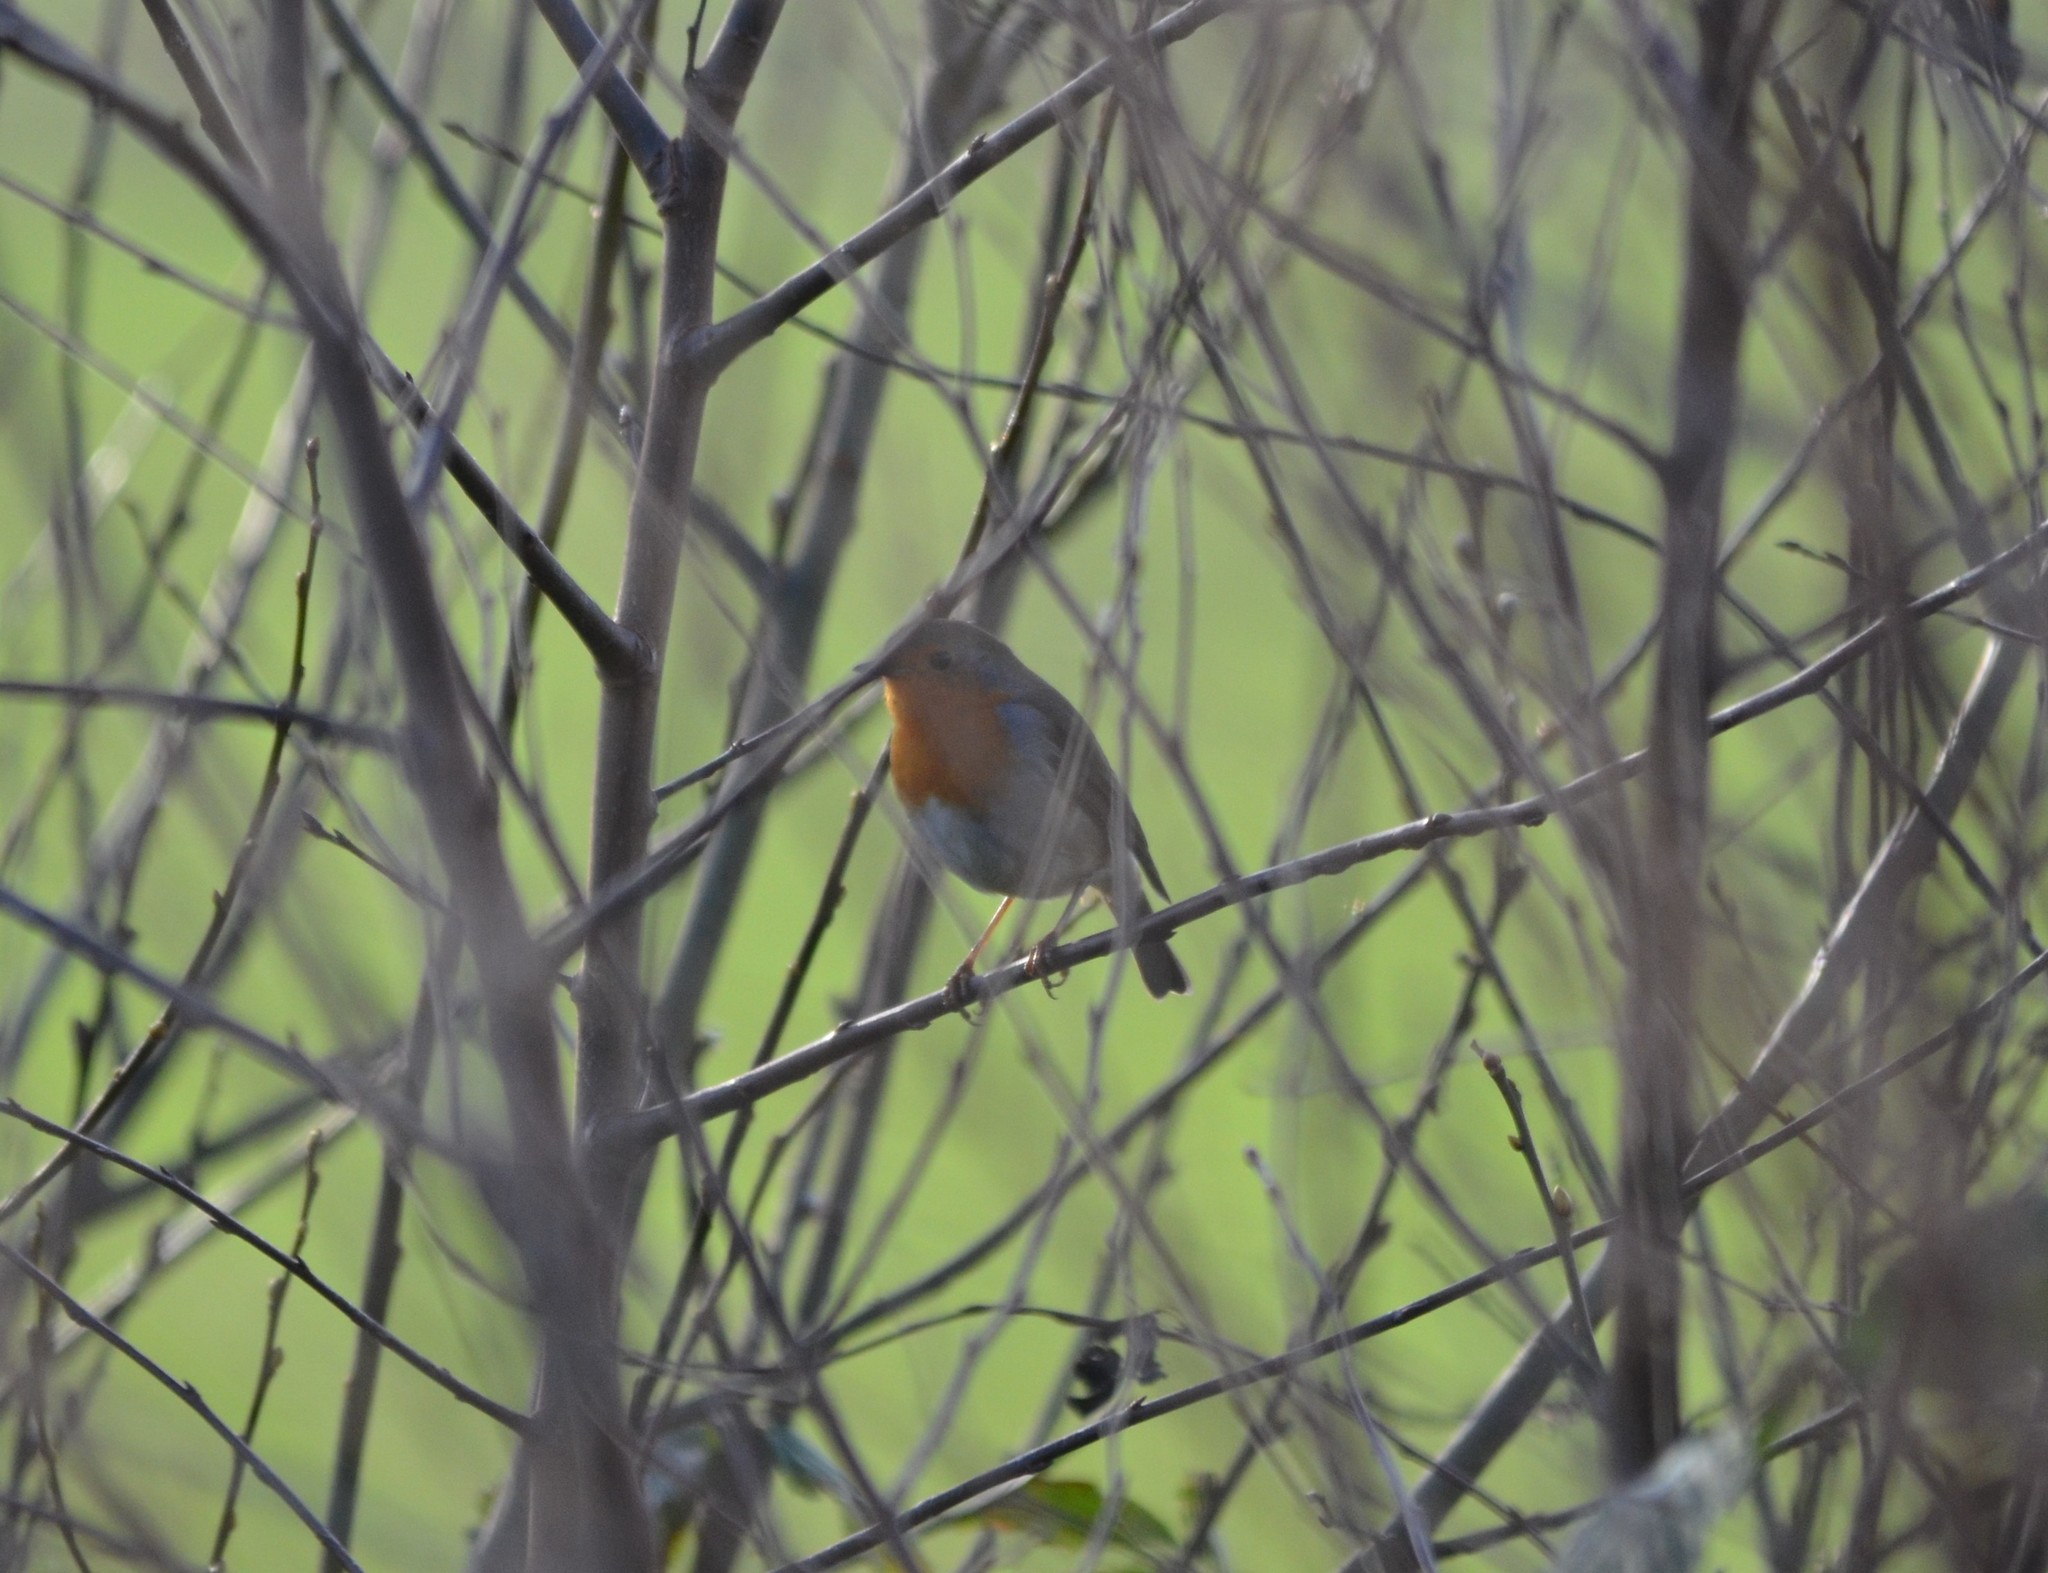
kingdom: Animalia
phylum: Chordata
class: Aves
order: Passeriformes
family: Muscicapidae
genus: Erithacus
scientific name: Erithacus rubecula
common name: European robin
